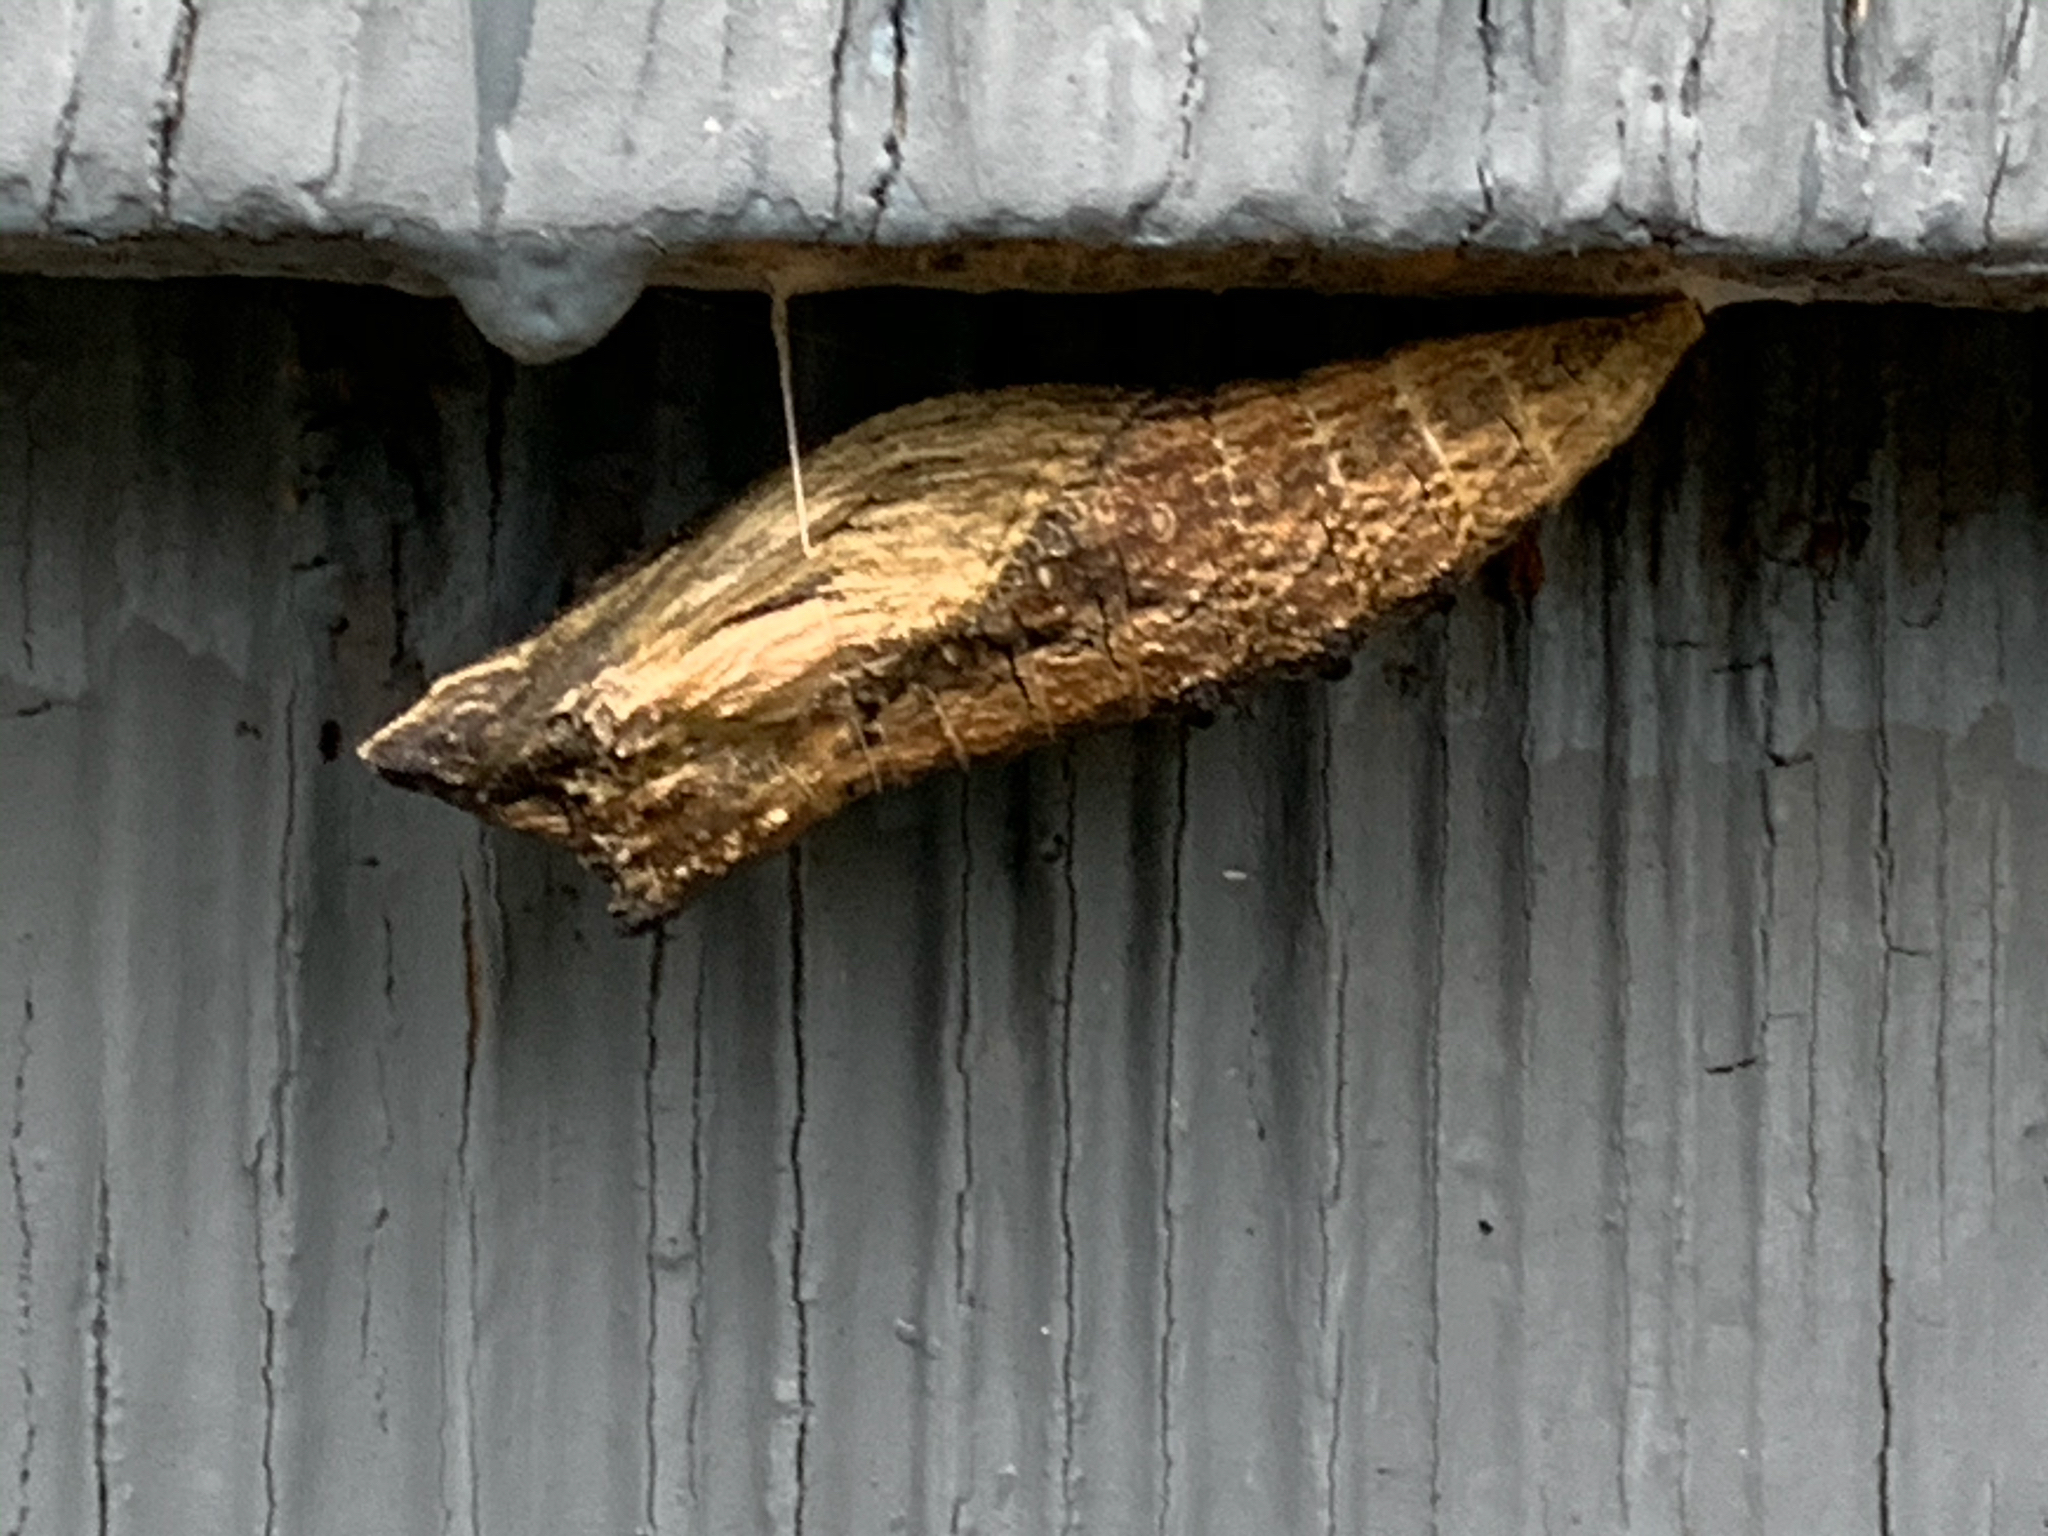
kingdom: Animalia
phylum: Arthropoda
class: Insecta
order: Lepidoptera
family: Papilionidae
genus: Papilio
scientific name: Papilio polyxenes
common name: Black swallowtail
